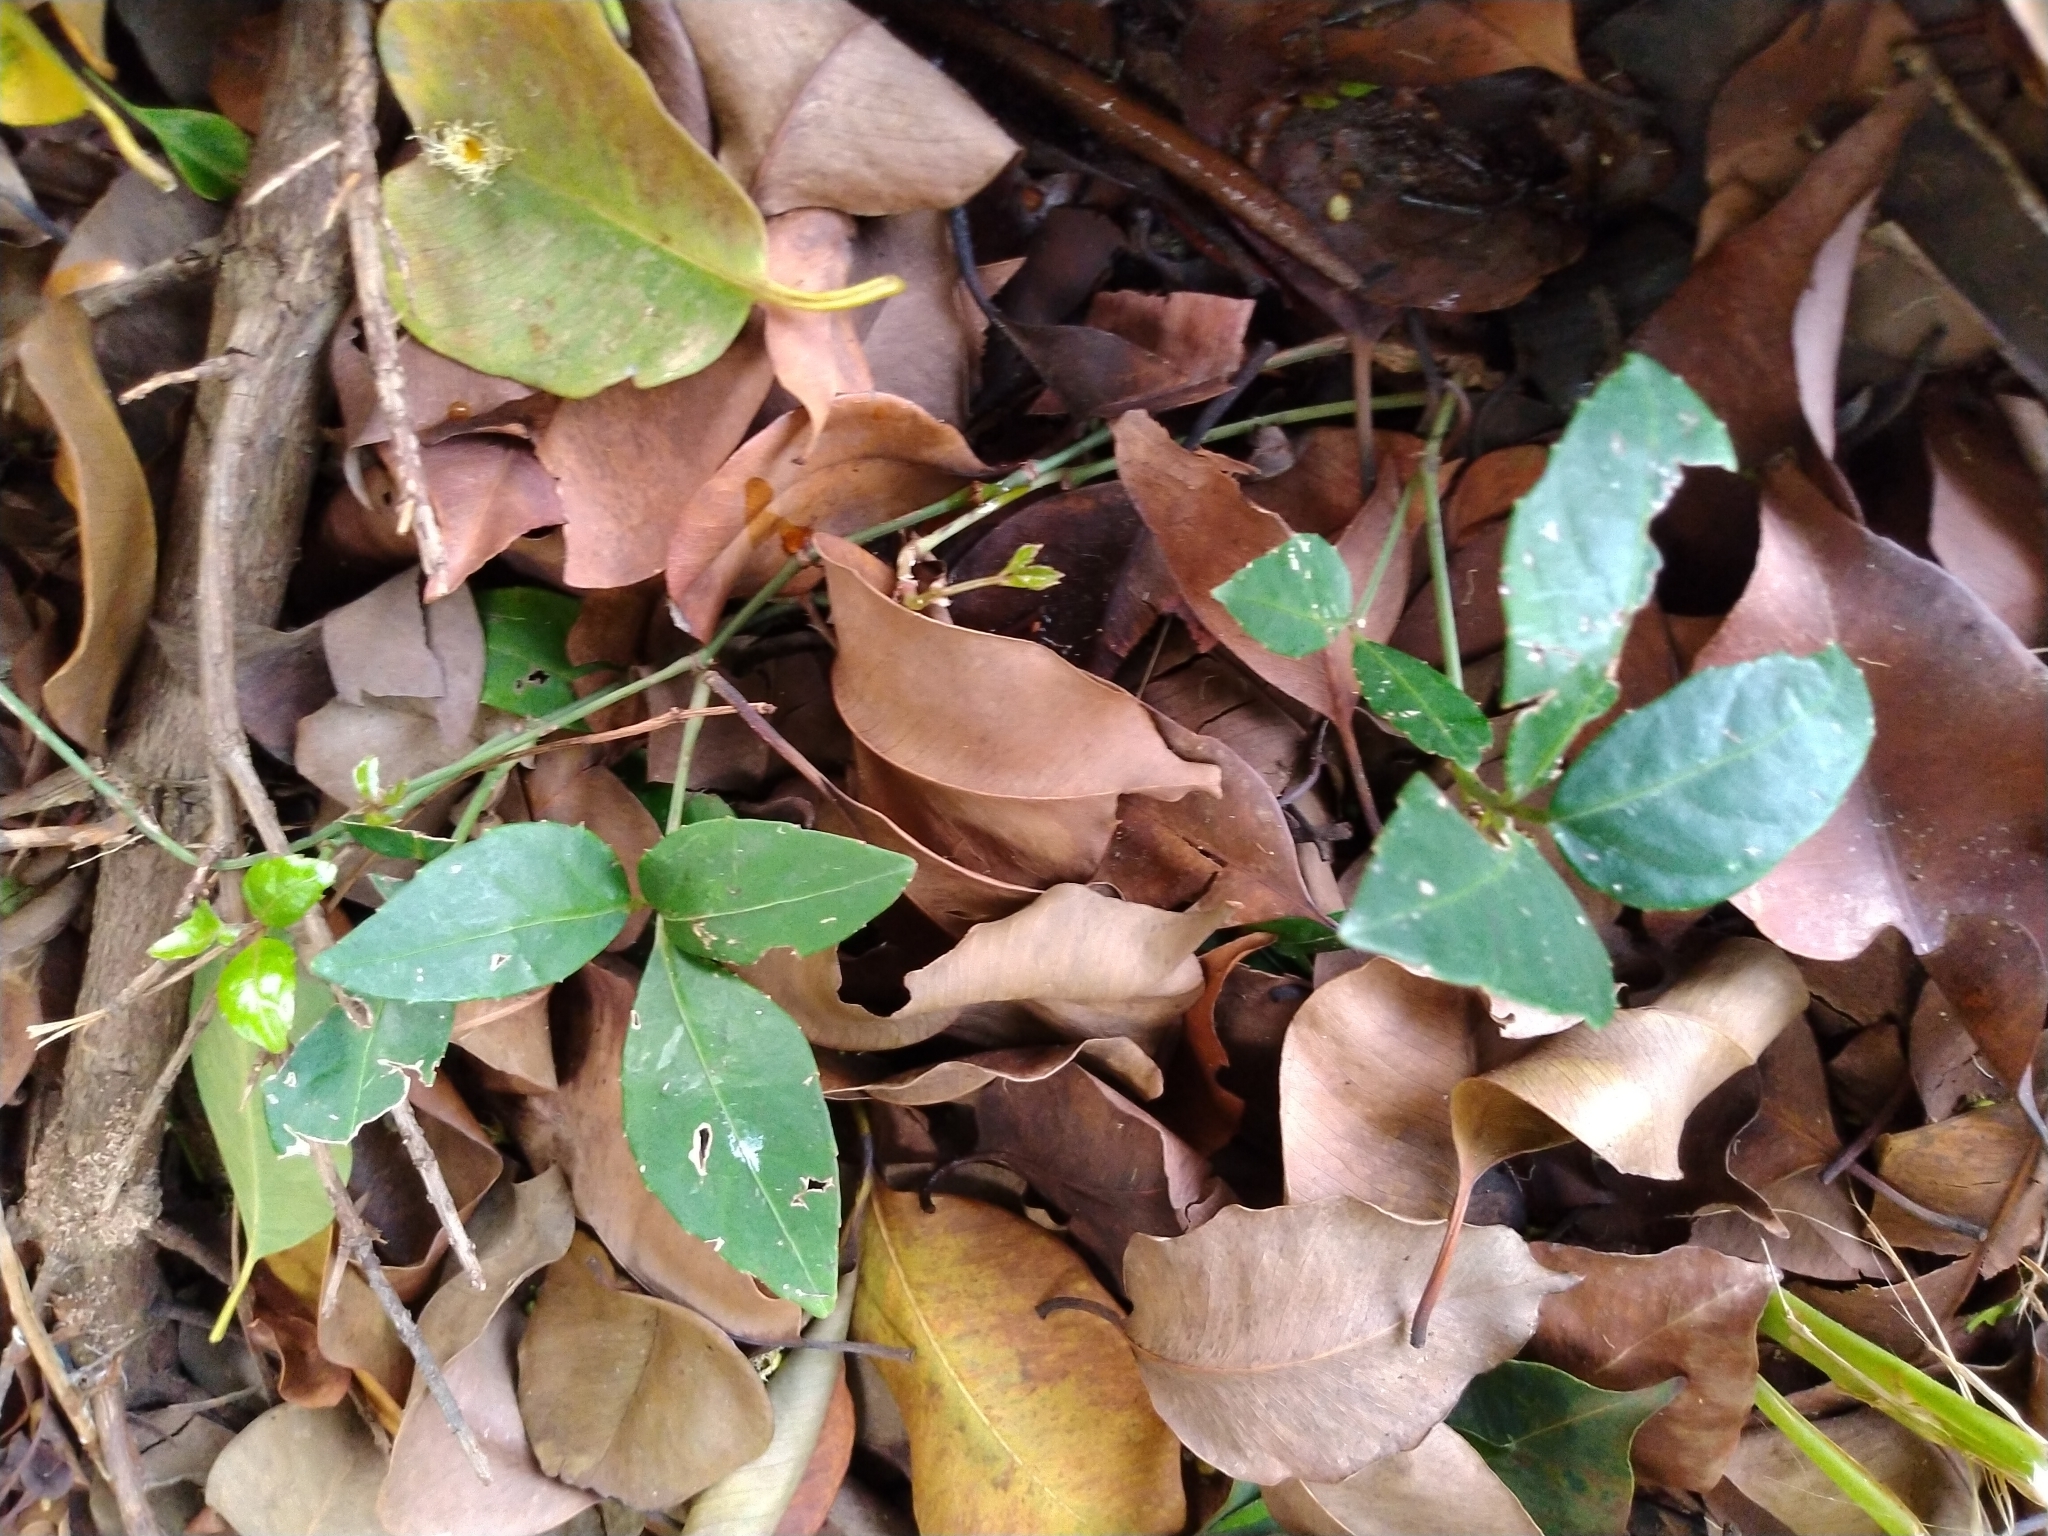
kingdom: Plantae
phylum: Tracheophyta
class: Magnoliopsida
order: Vitales
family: Vitaceae
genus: Tetrastigma
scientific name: Tetrastigma formosanum
